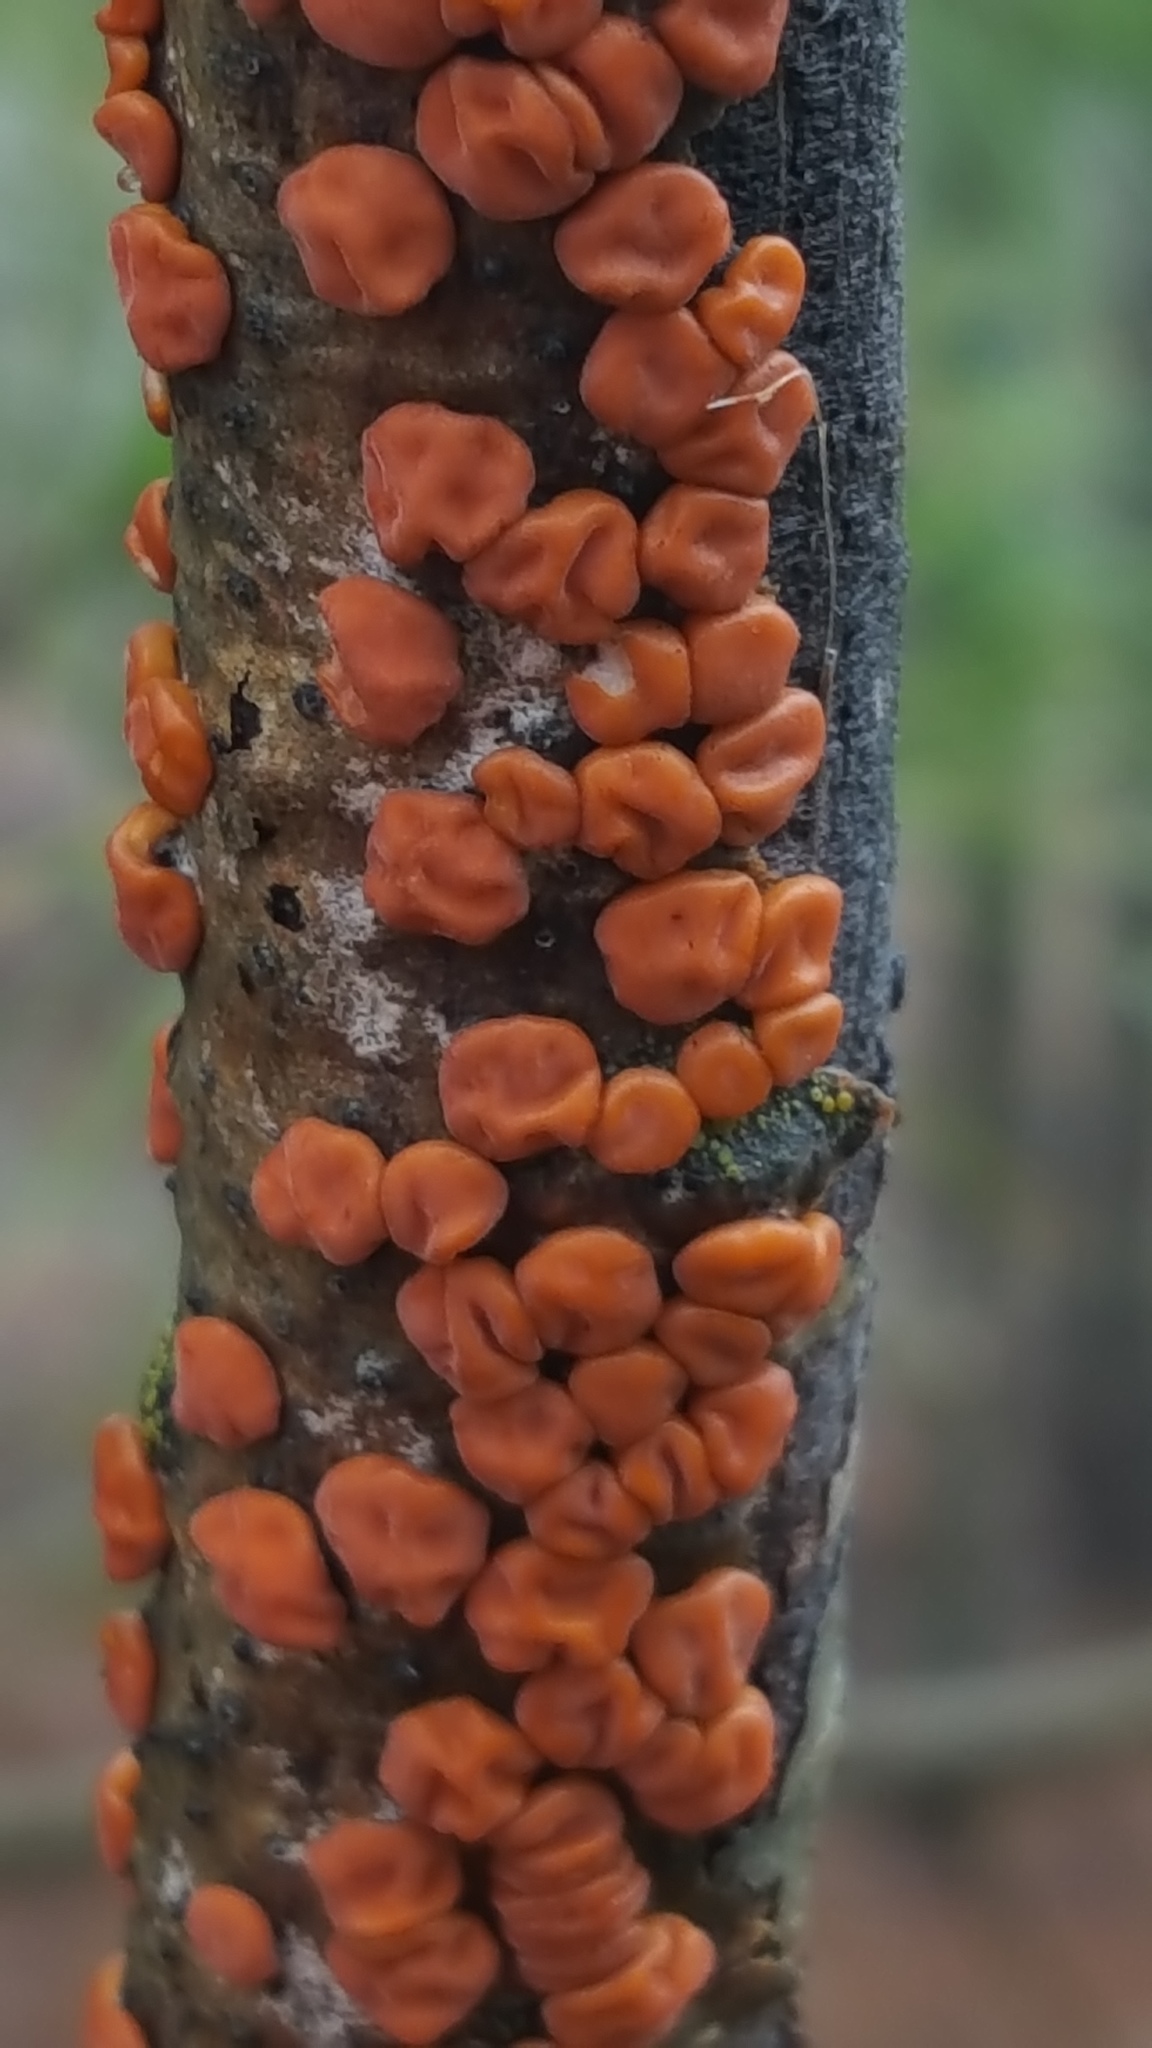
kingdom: Fungi
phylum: Basidiomycota
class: Agaricomycetes
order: Russulales
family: Peniophoraceae
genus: Peniophora
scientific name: Peniophora rufa
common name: Red tree brain fungus
